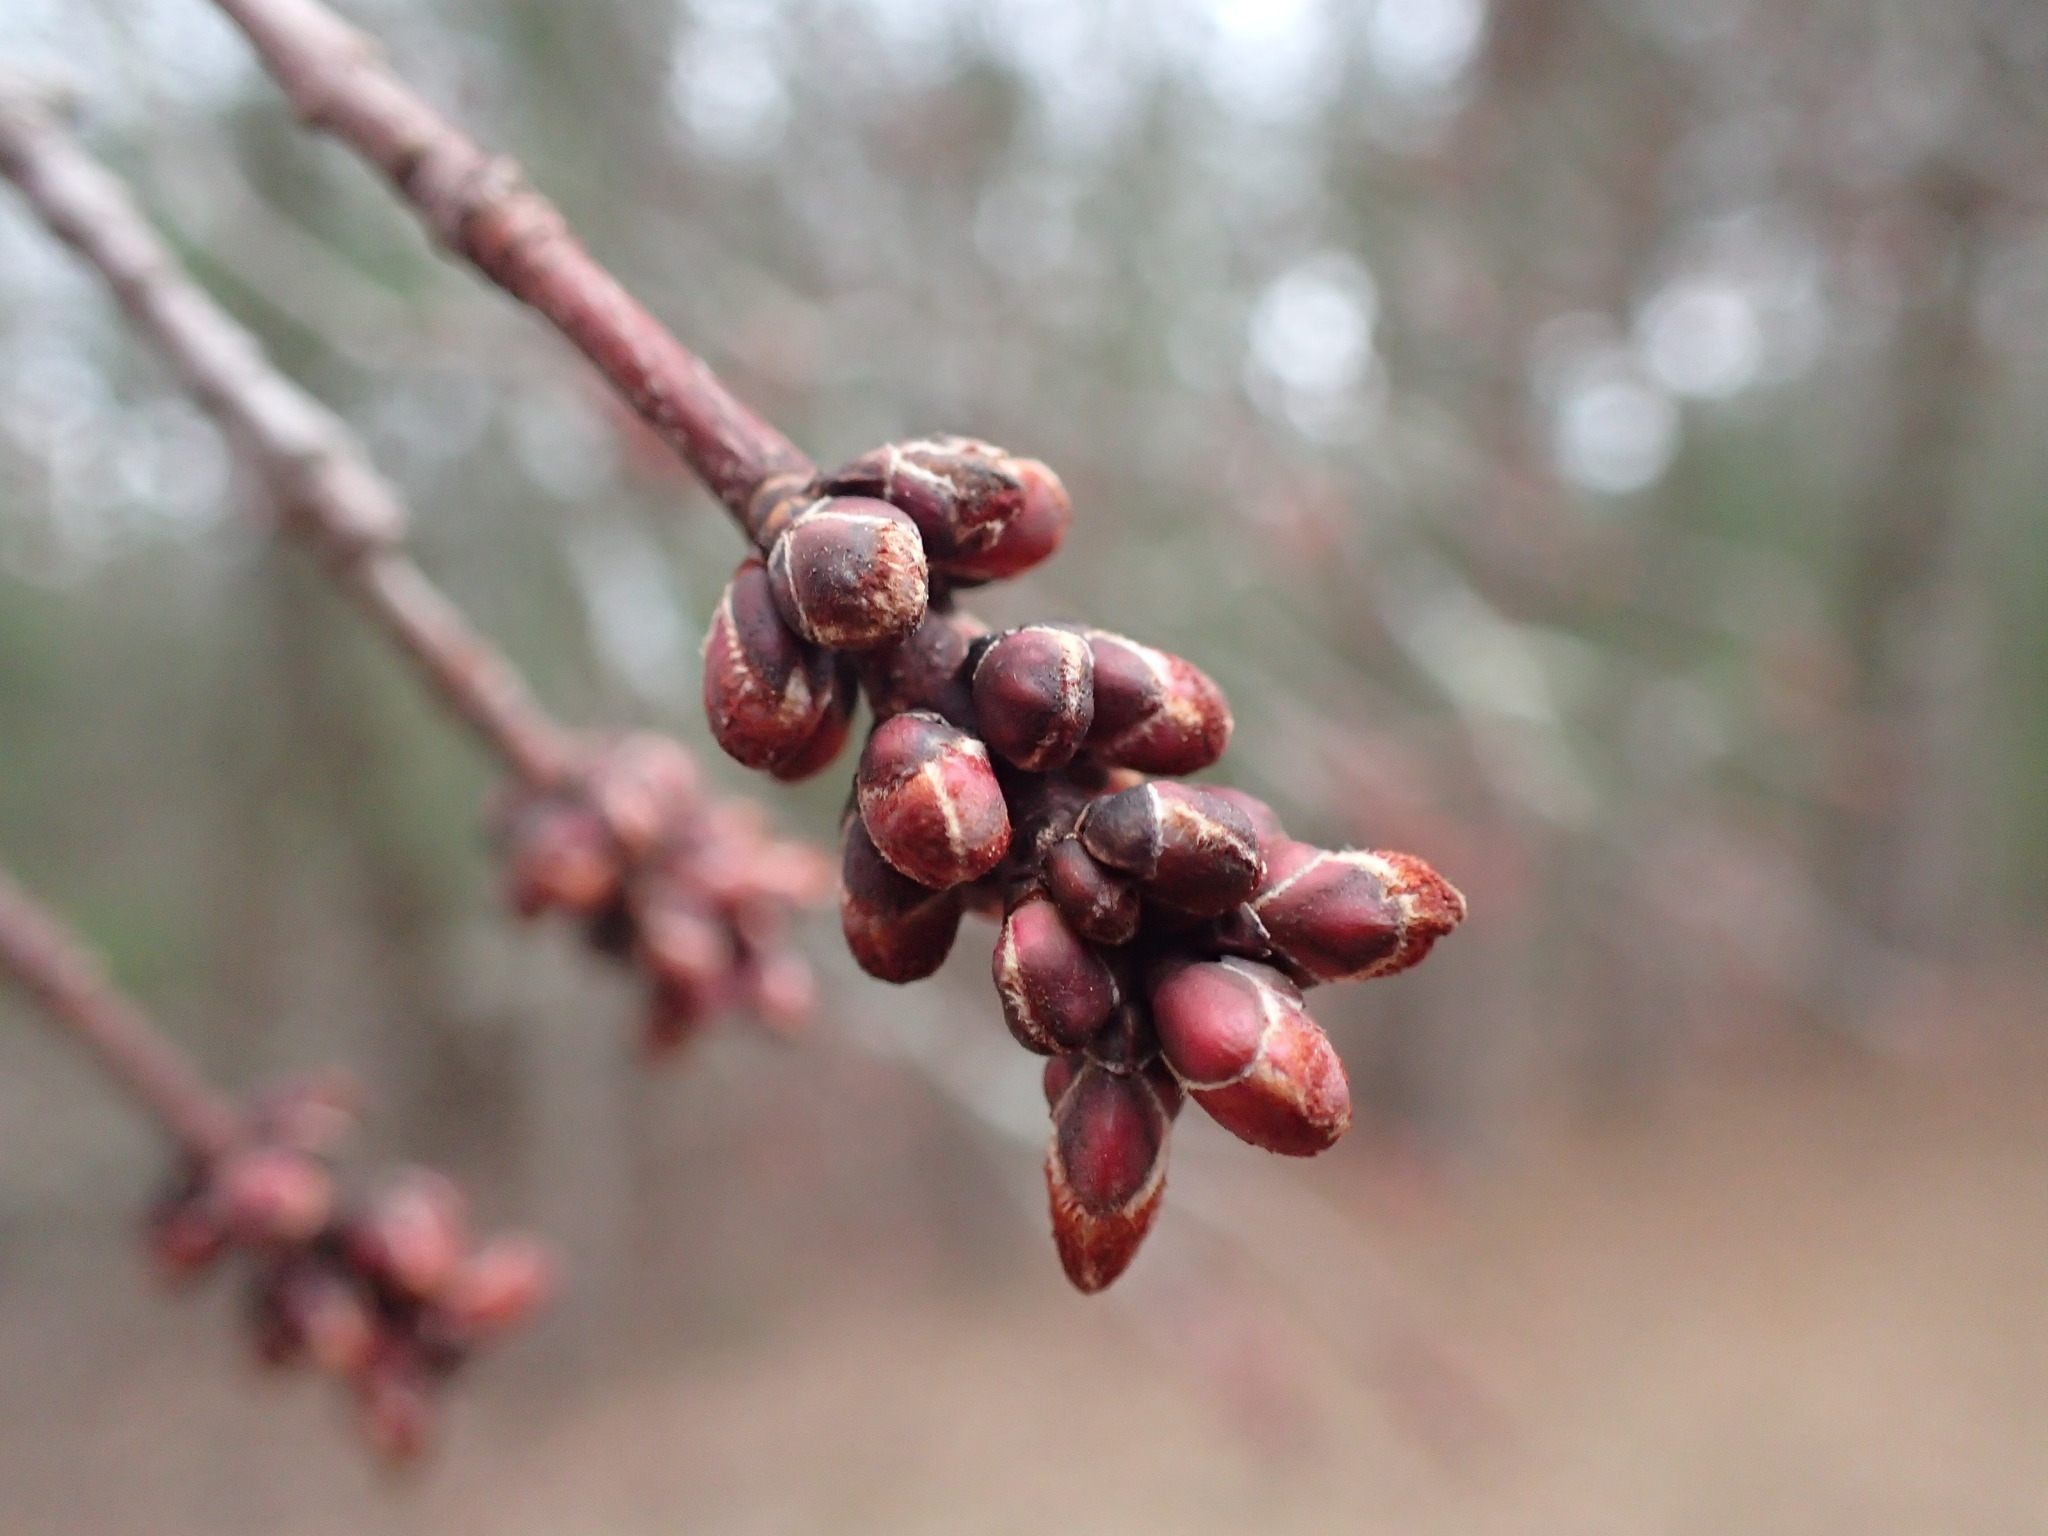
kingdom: Plantae
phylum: Tracheophyta
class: Magnoliopsida
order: Sapindales
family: Sapindaceae
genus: Acer
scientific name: Acer rubrum
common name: Red maple
